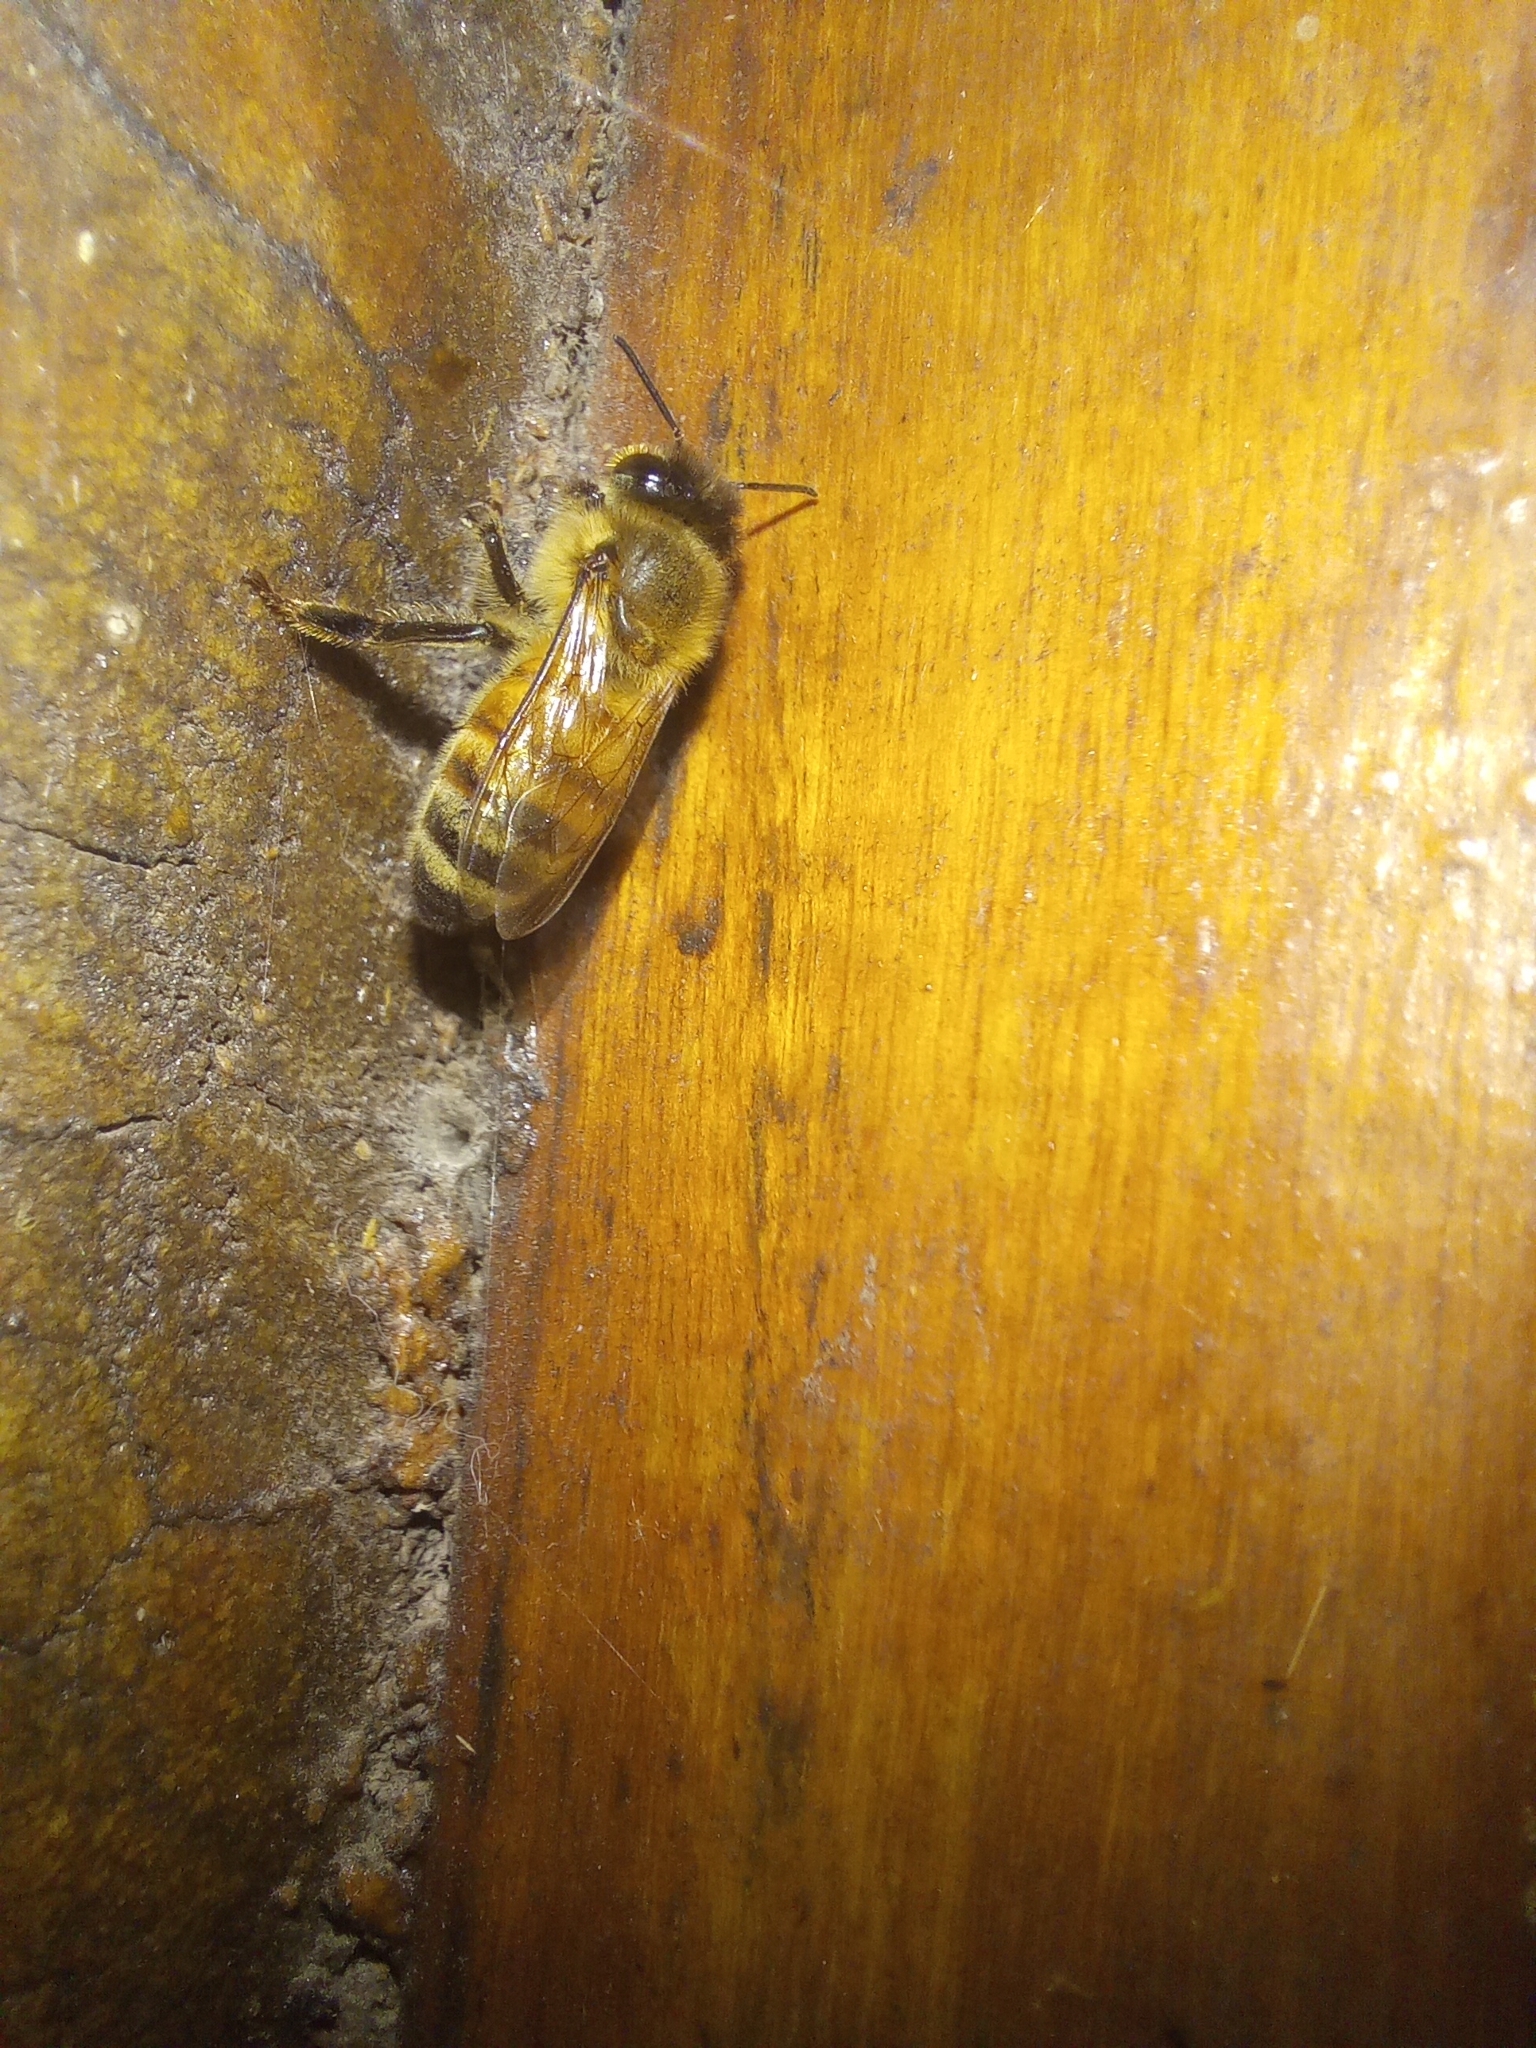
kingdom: Animalia
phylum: Arthropoda
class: Insecta
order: Hymenoptera
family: Apidae
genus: Apis
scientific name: Apis mellifera
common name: Honey bee
